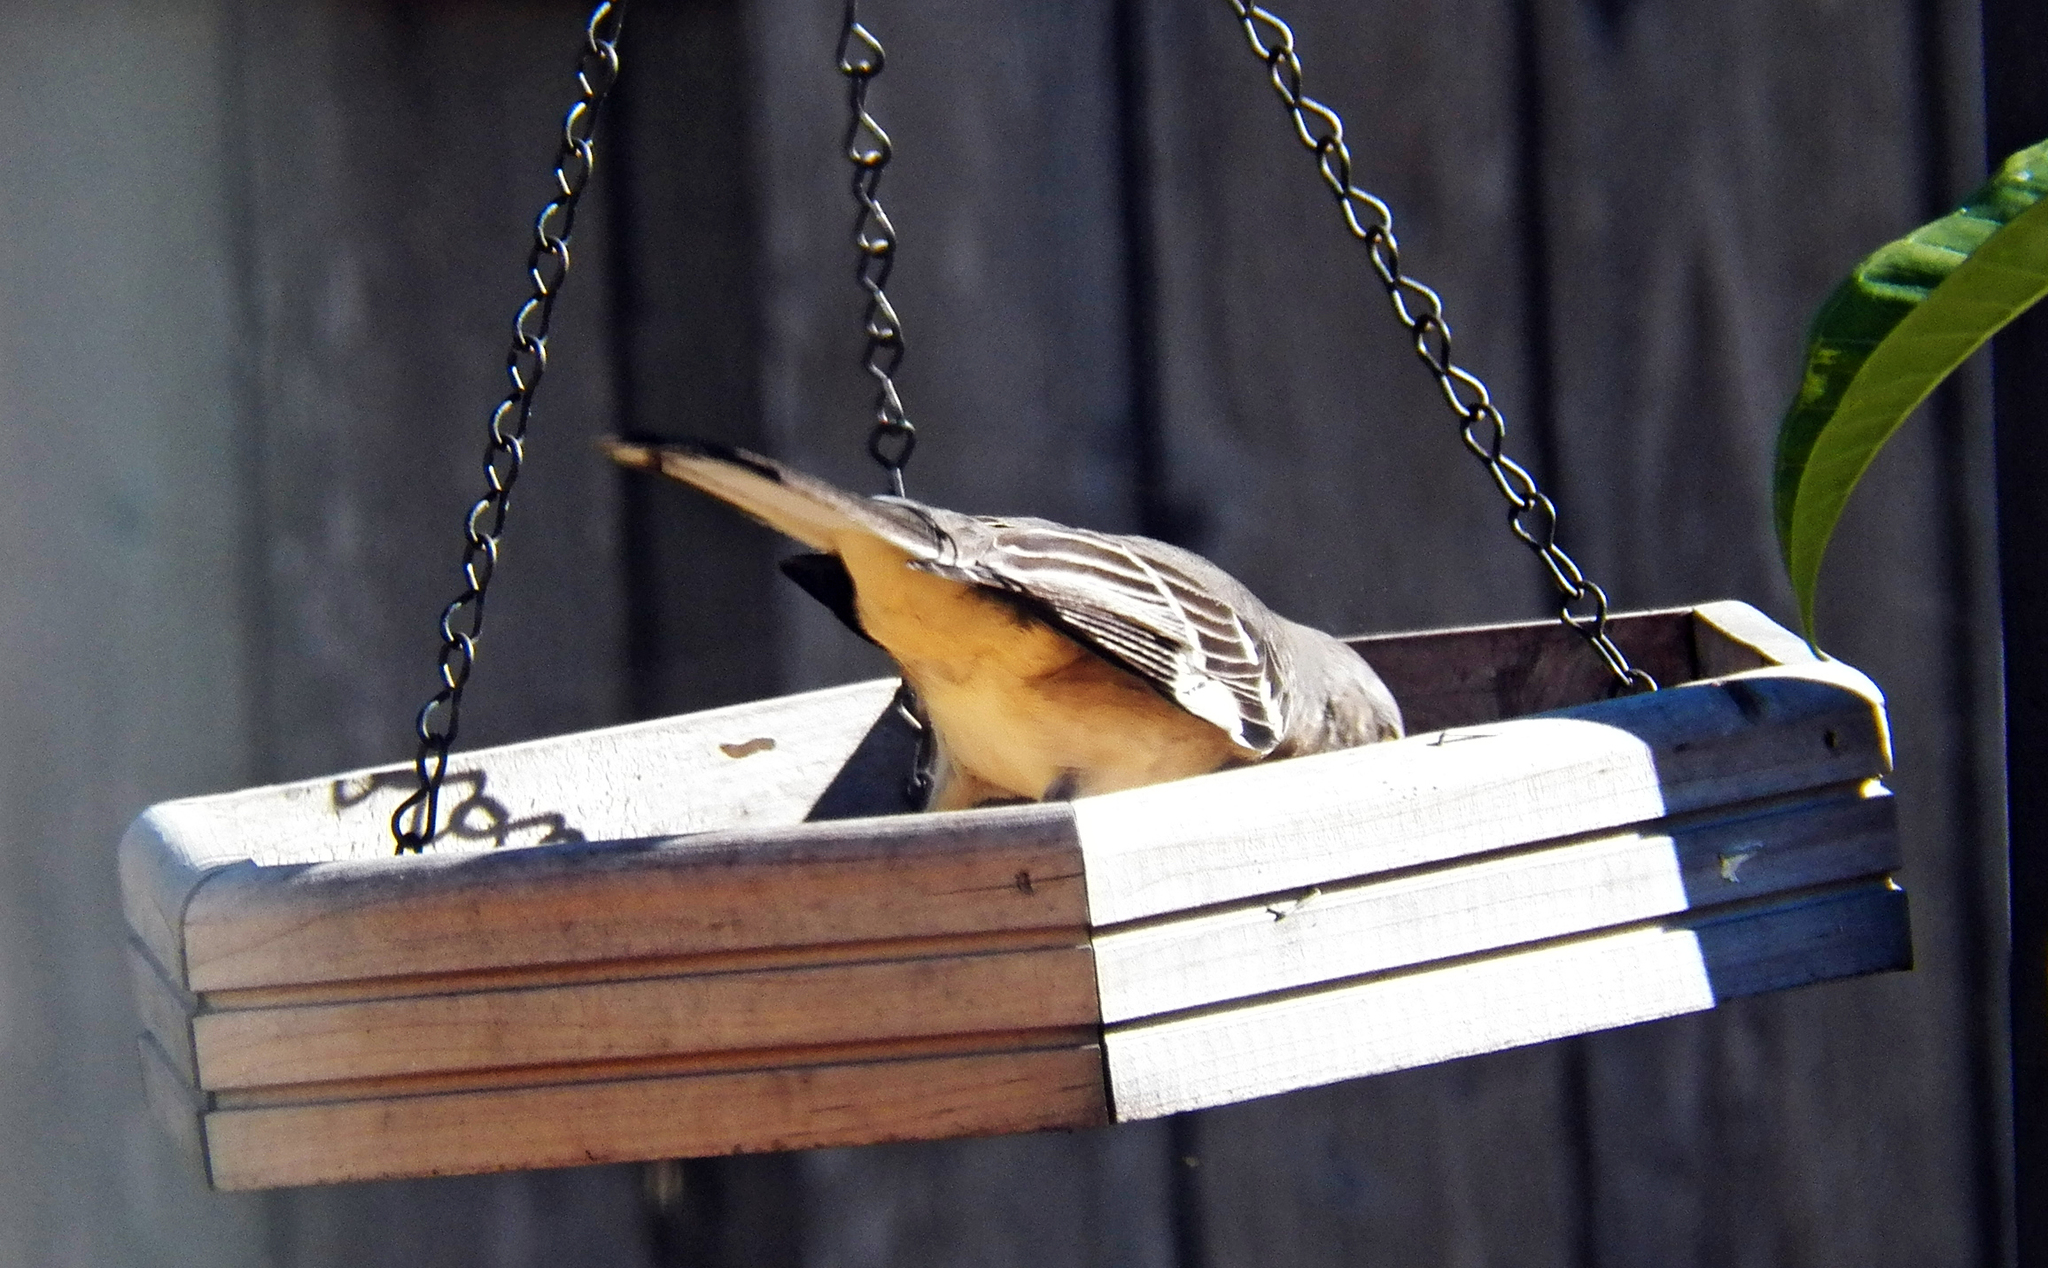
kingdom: Animalia
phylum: Chordata
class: Aves
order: Passeriformes
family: Mimidae
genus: Mimus
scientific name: Mimus polyglottos
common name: Northern mockingbird
